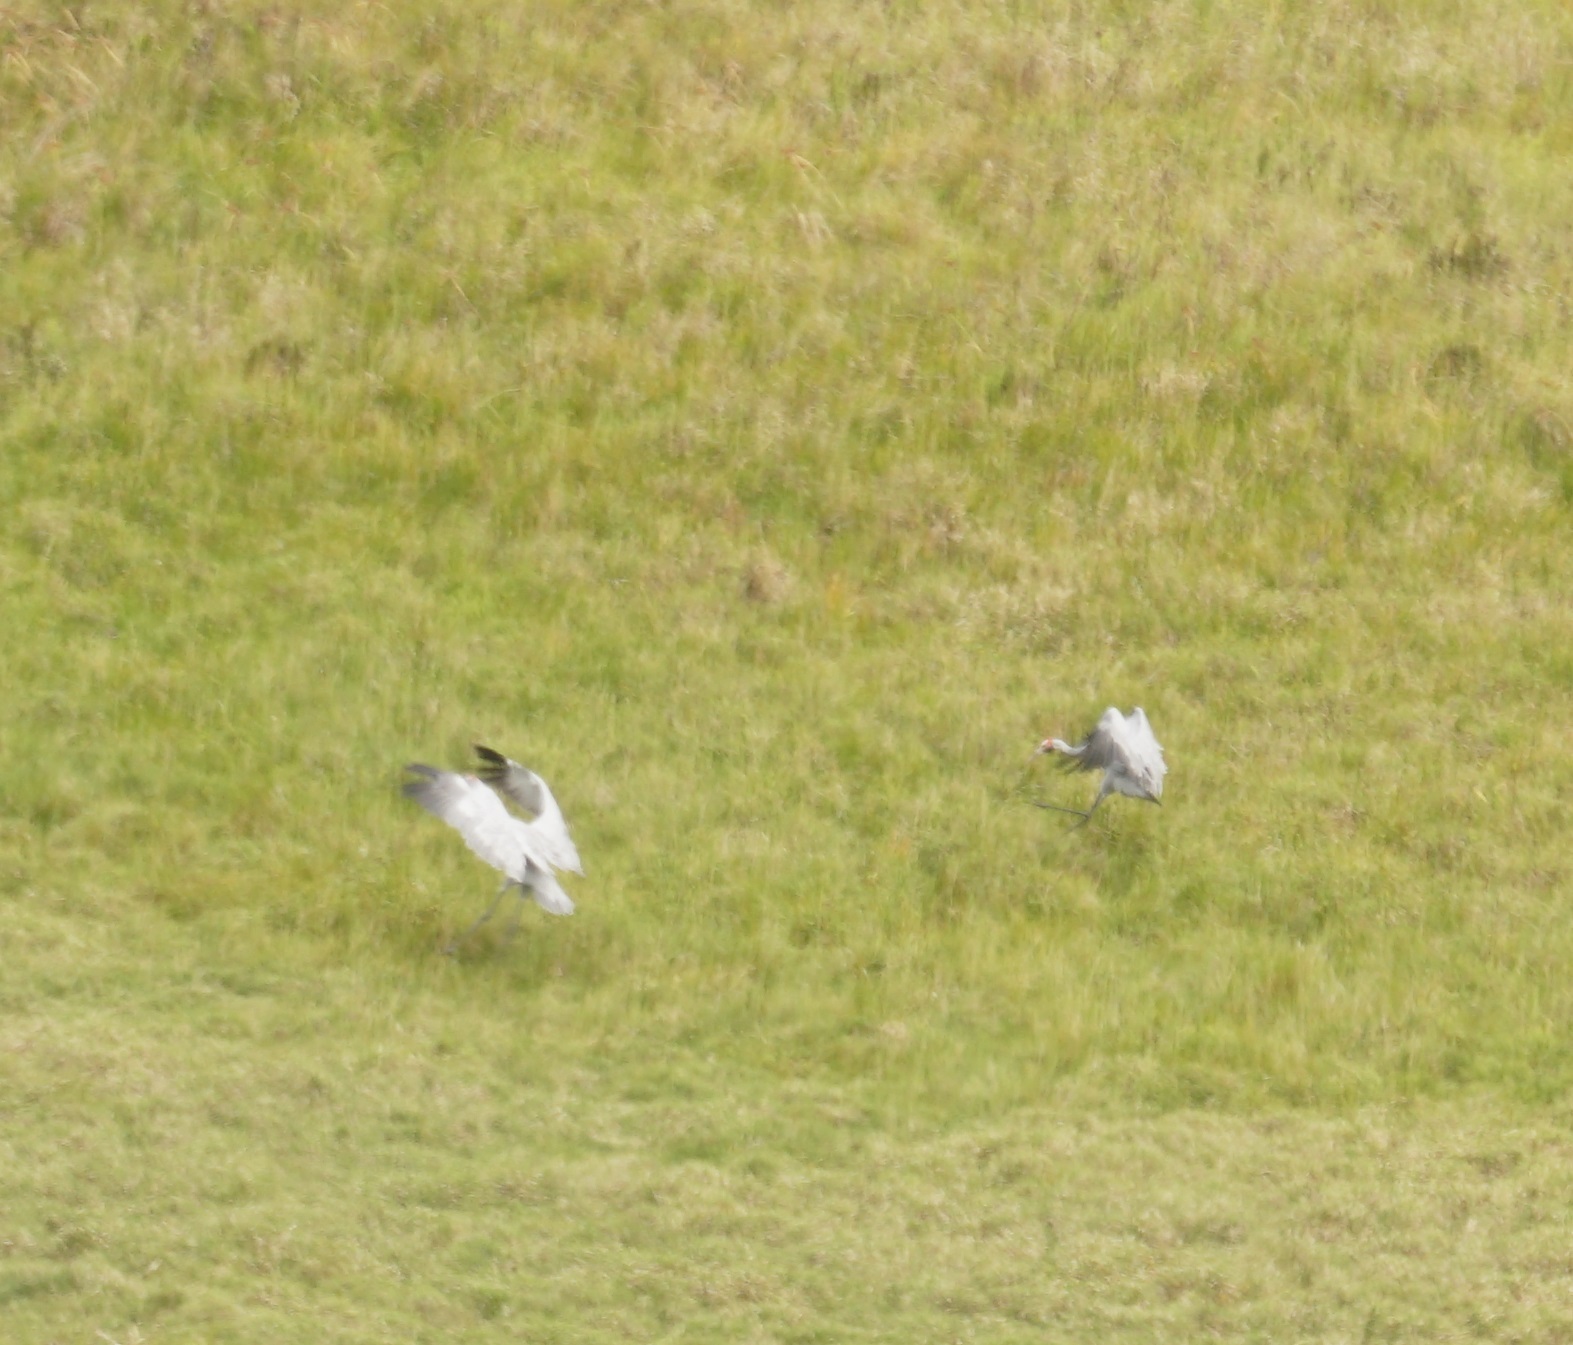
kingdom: Animalia
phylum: Chordata
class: Aves
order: Gruiformes
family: Gruidae
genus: Grus
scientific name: Grus rubicunda
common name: Brolga
